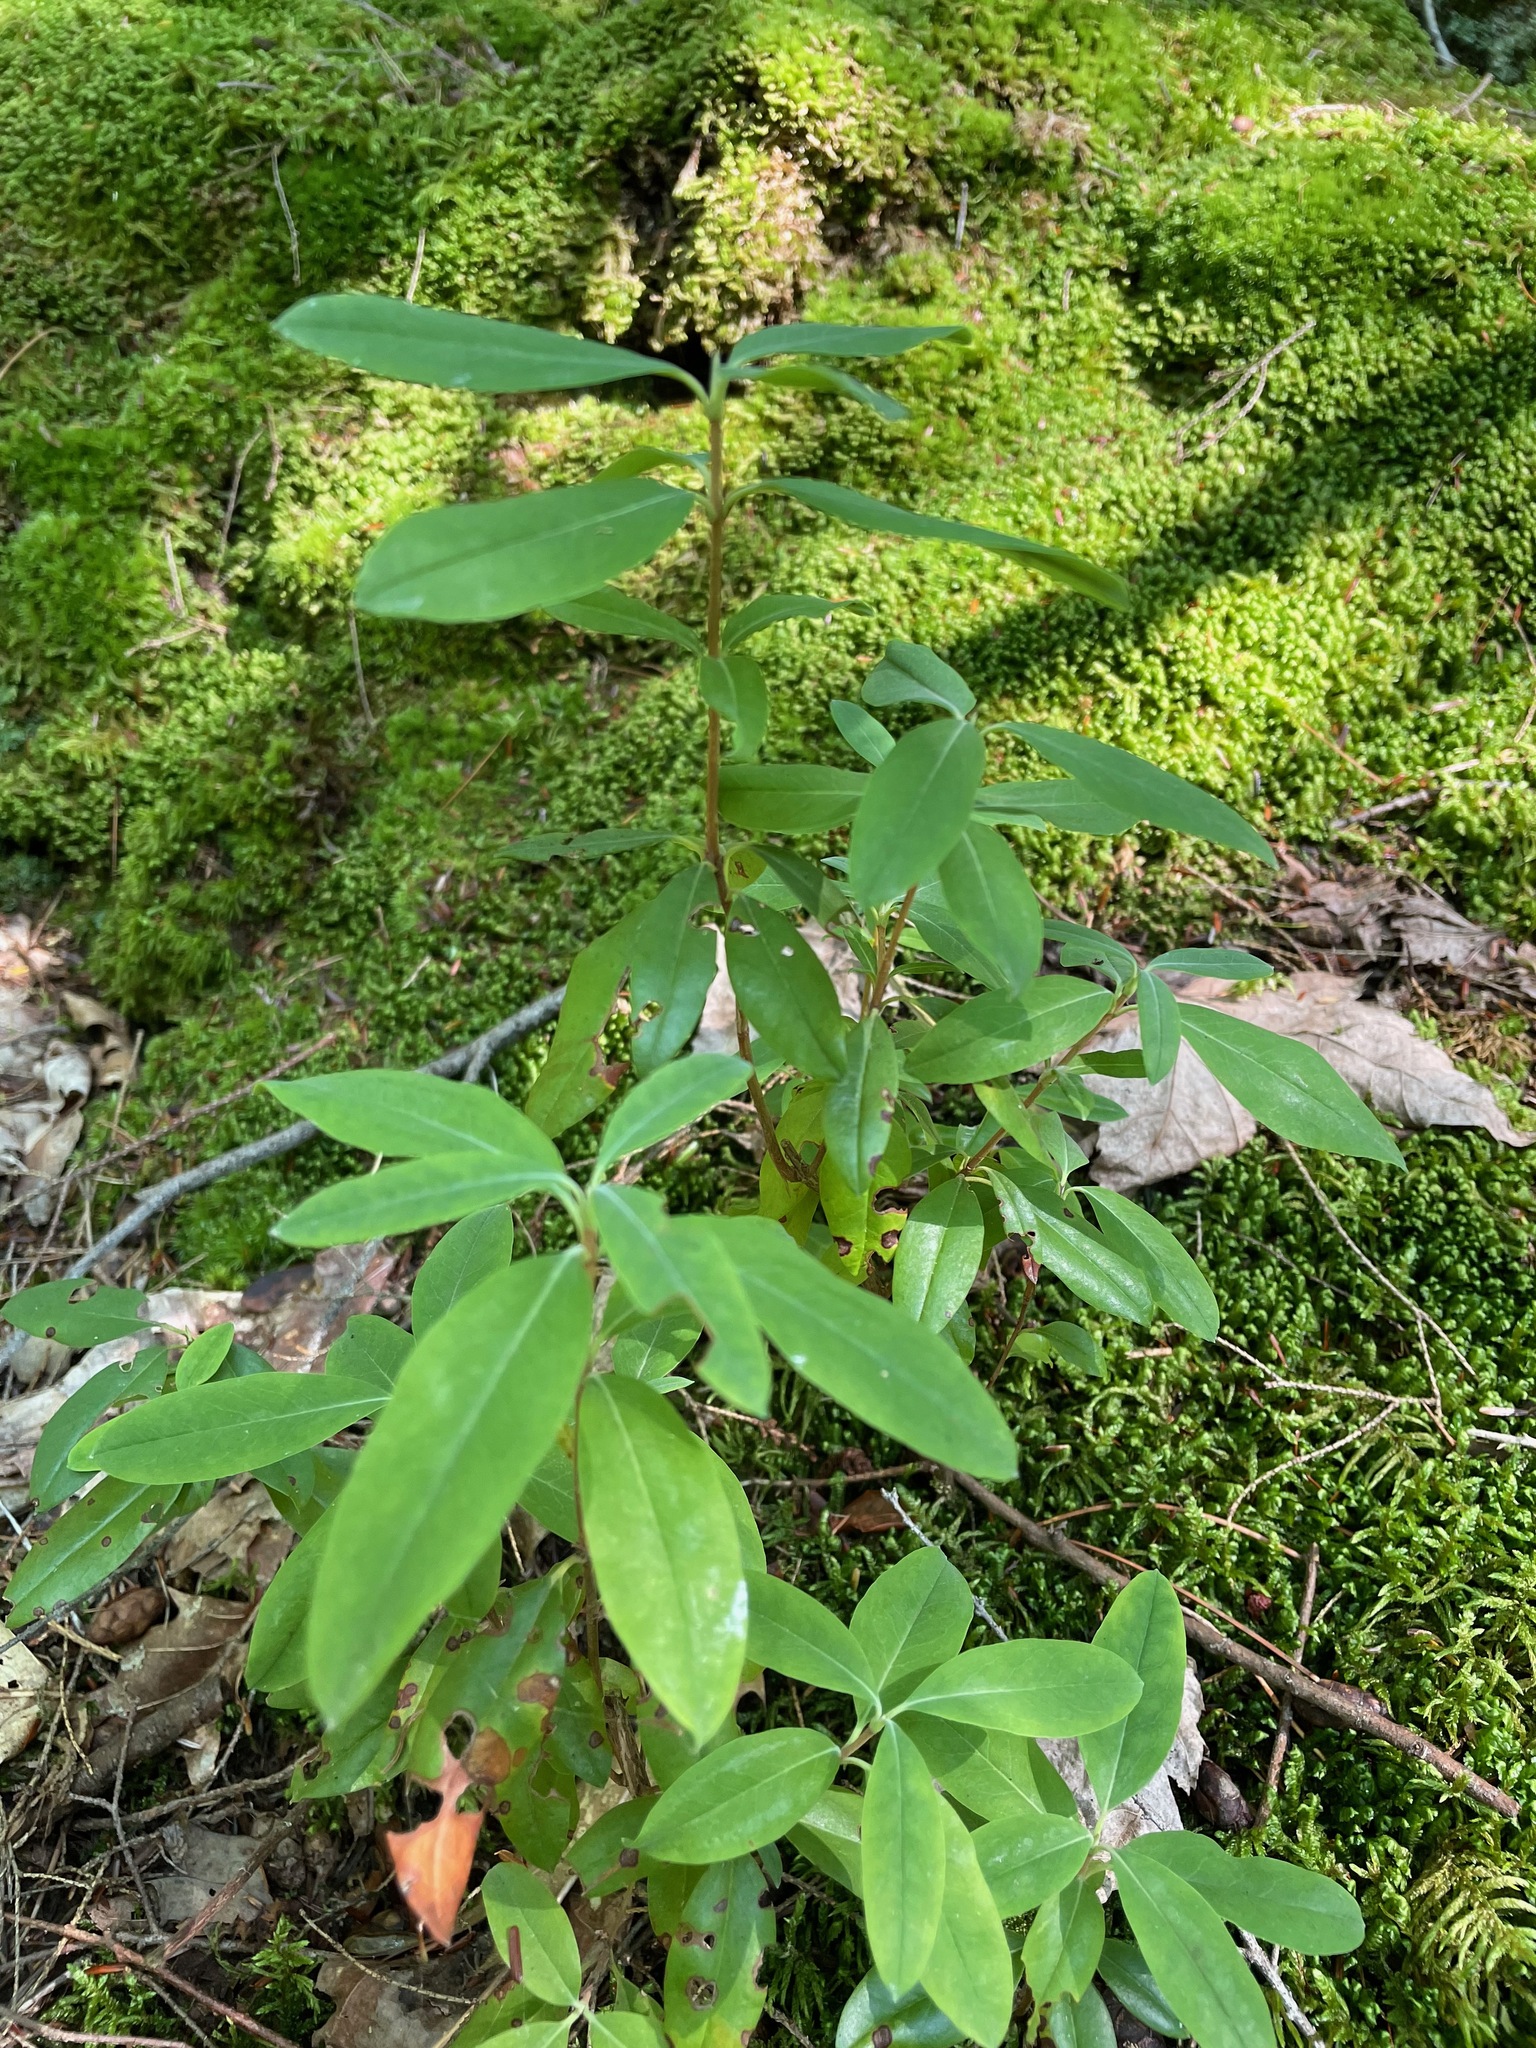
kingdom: Plantae
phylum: Tracheophyta
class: Magnoliopsida
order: Ericales
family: Ericaceae
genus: Kalmia
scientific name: Kalmia angustifolia
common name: Sheep-laurel
